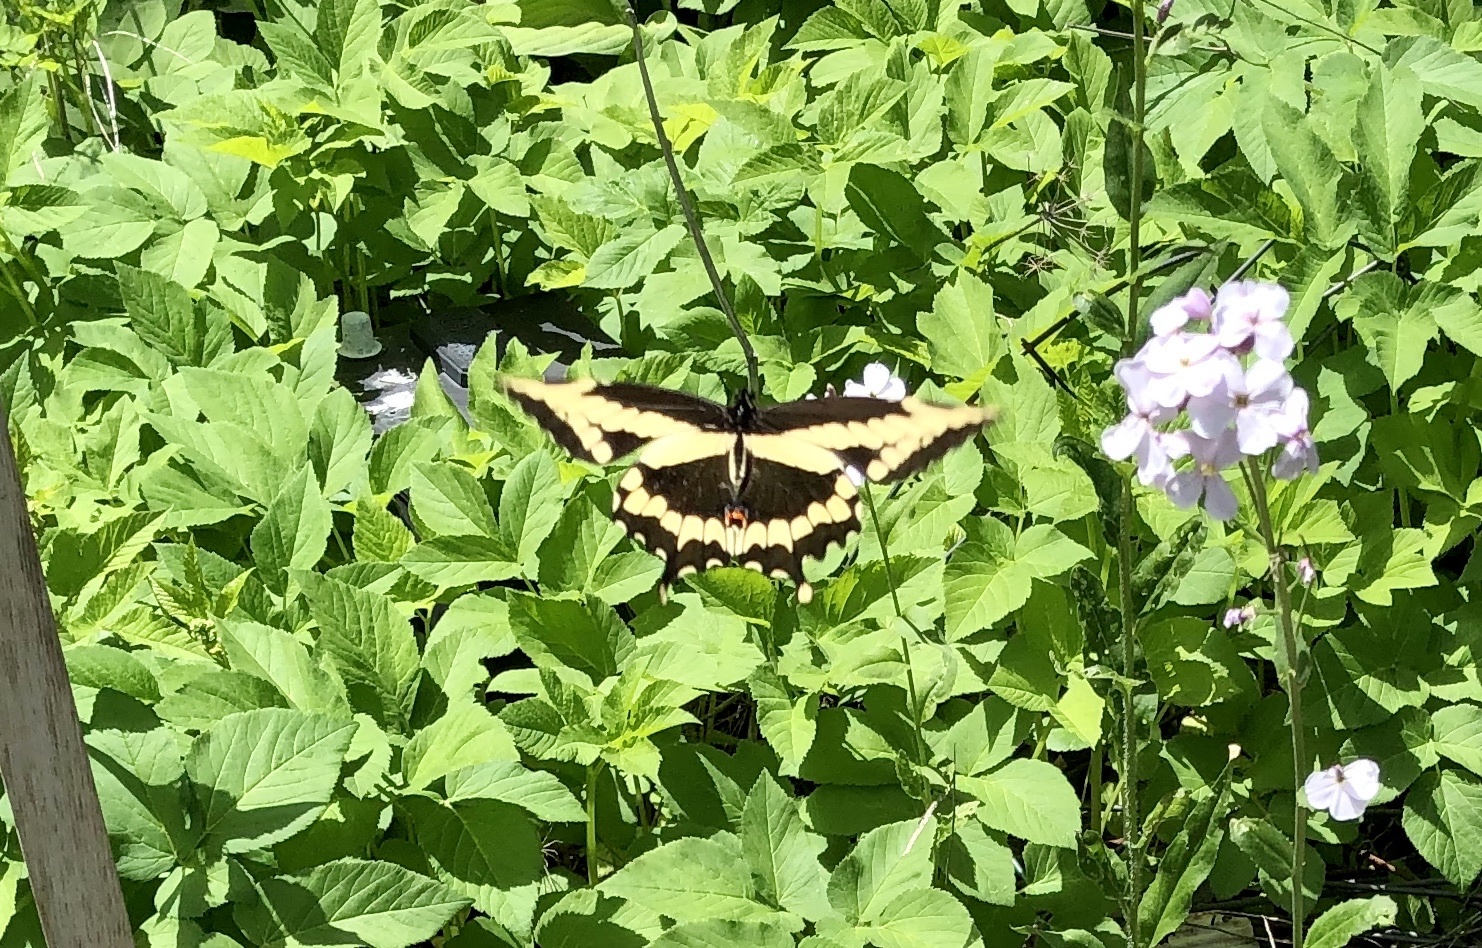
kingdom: Animalia
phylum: Arthropoda
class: Insecta
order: Lepidoptera
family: Papilionidae
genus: Papilio
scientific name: Papilio cresphontes
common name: Giant swallowtail
